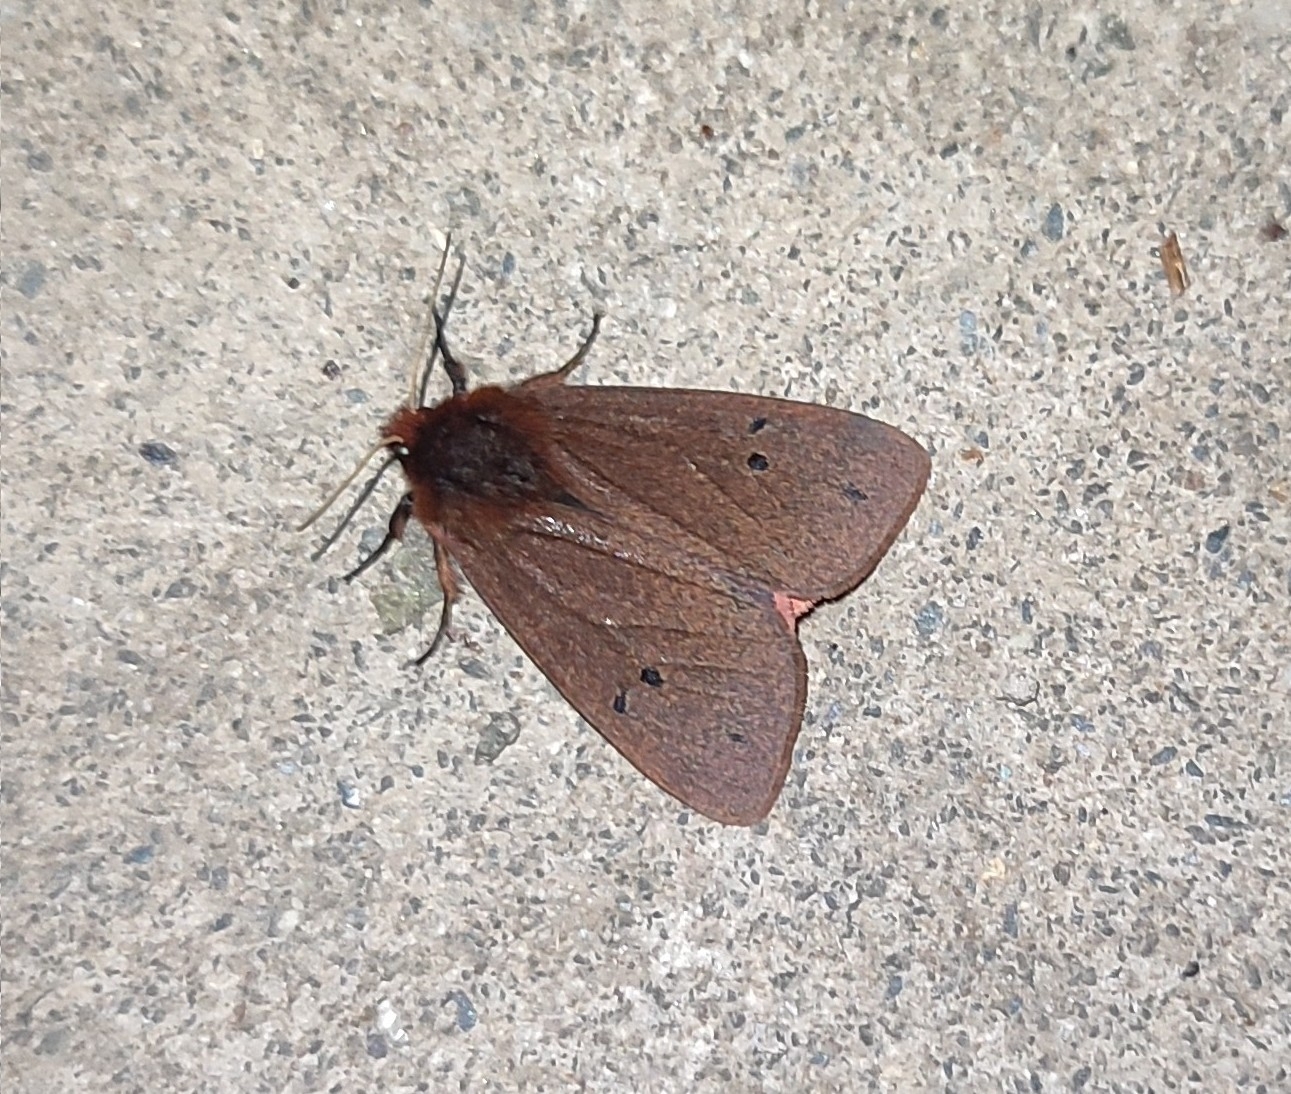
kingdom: Animalia
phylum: Arthropoda
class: Insecta
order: Lepidoptera
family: Erebidae
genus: Phragmatobia
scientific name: Phragmatobia fuliginosa
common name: Ruby tiger
